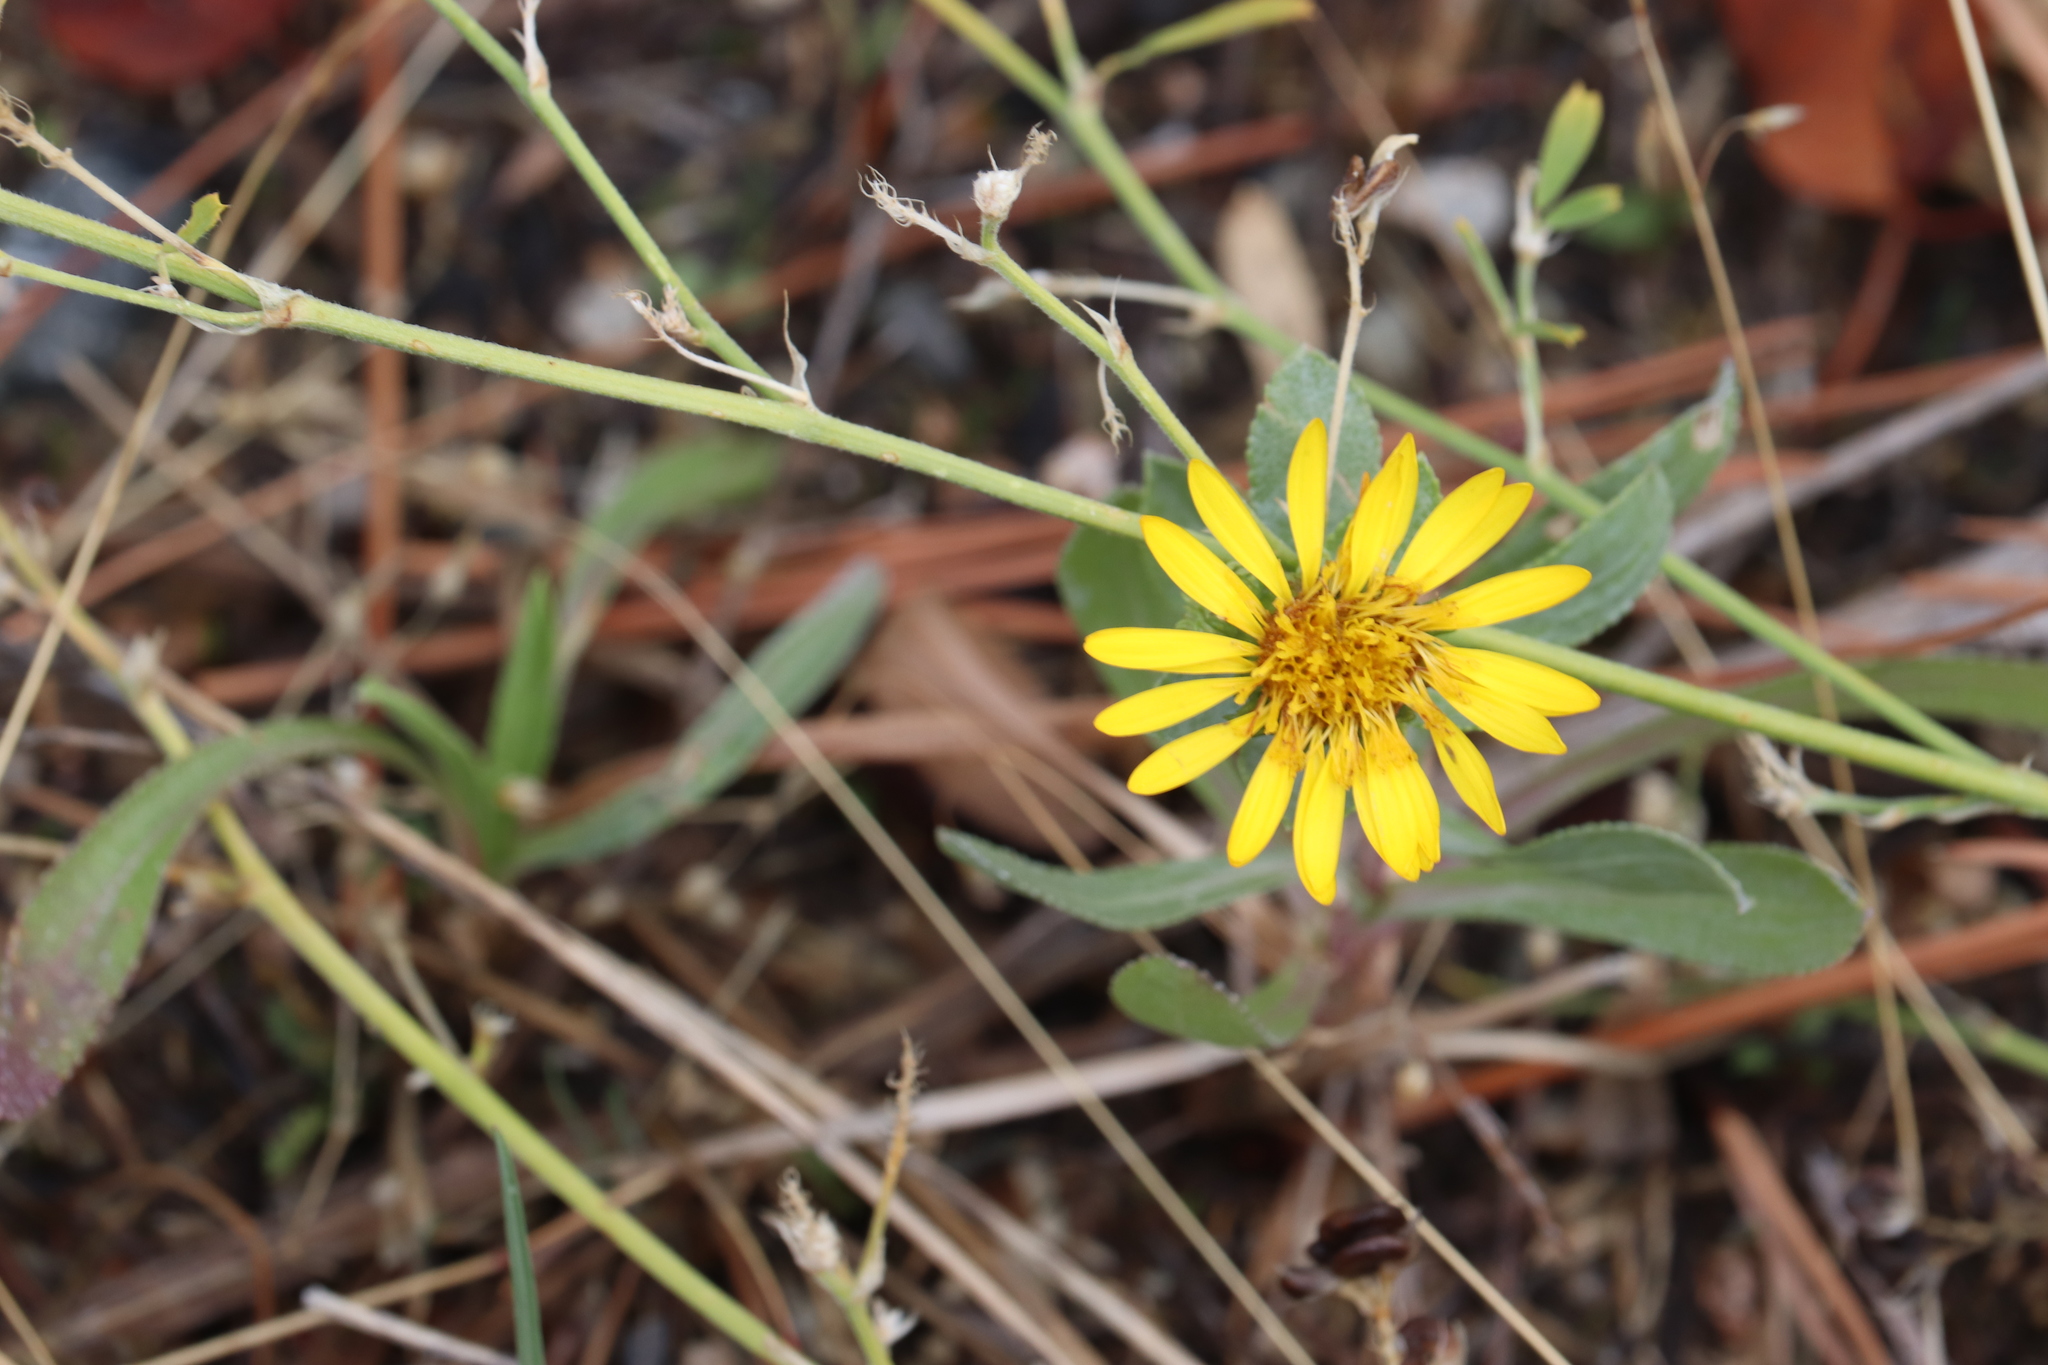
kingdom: Plantae
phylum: Tracheophyta
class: Magnoliopsida
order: Asterales
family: Asteraceae
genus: Heterotheca
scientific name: Heterotheca villosa
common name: Hairy false goldenaster
